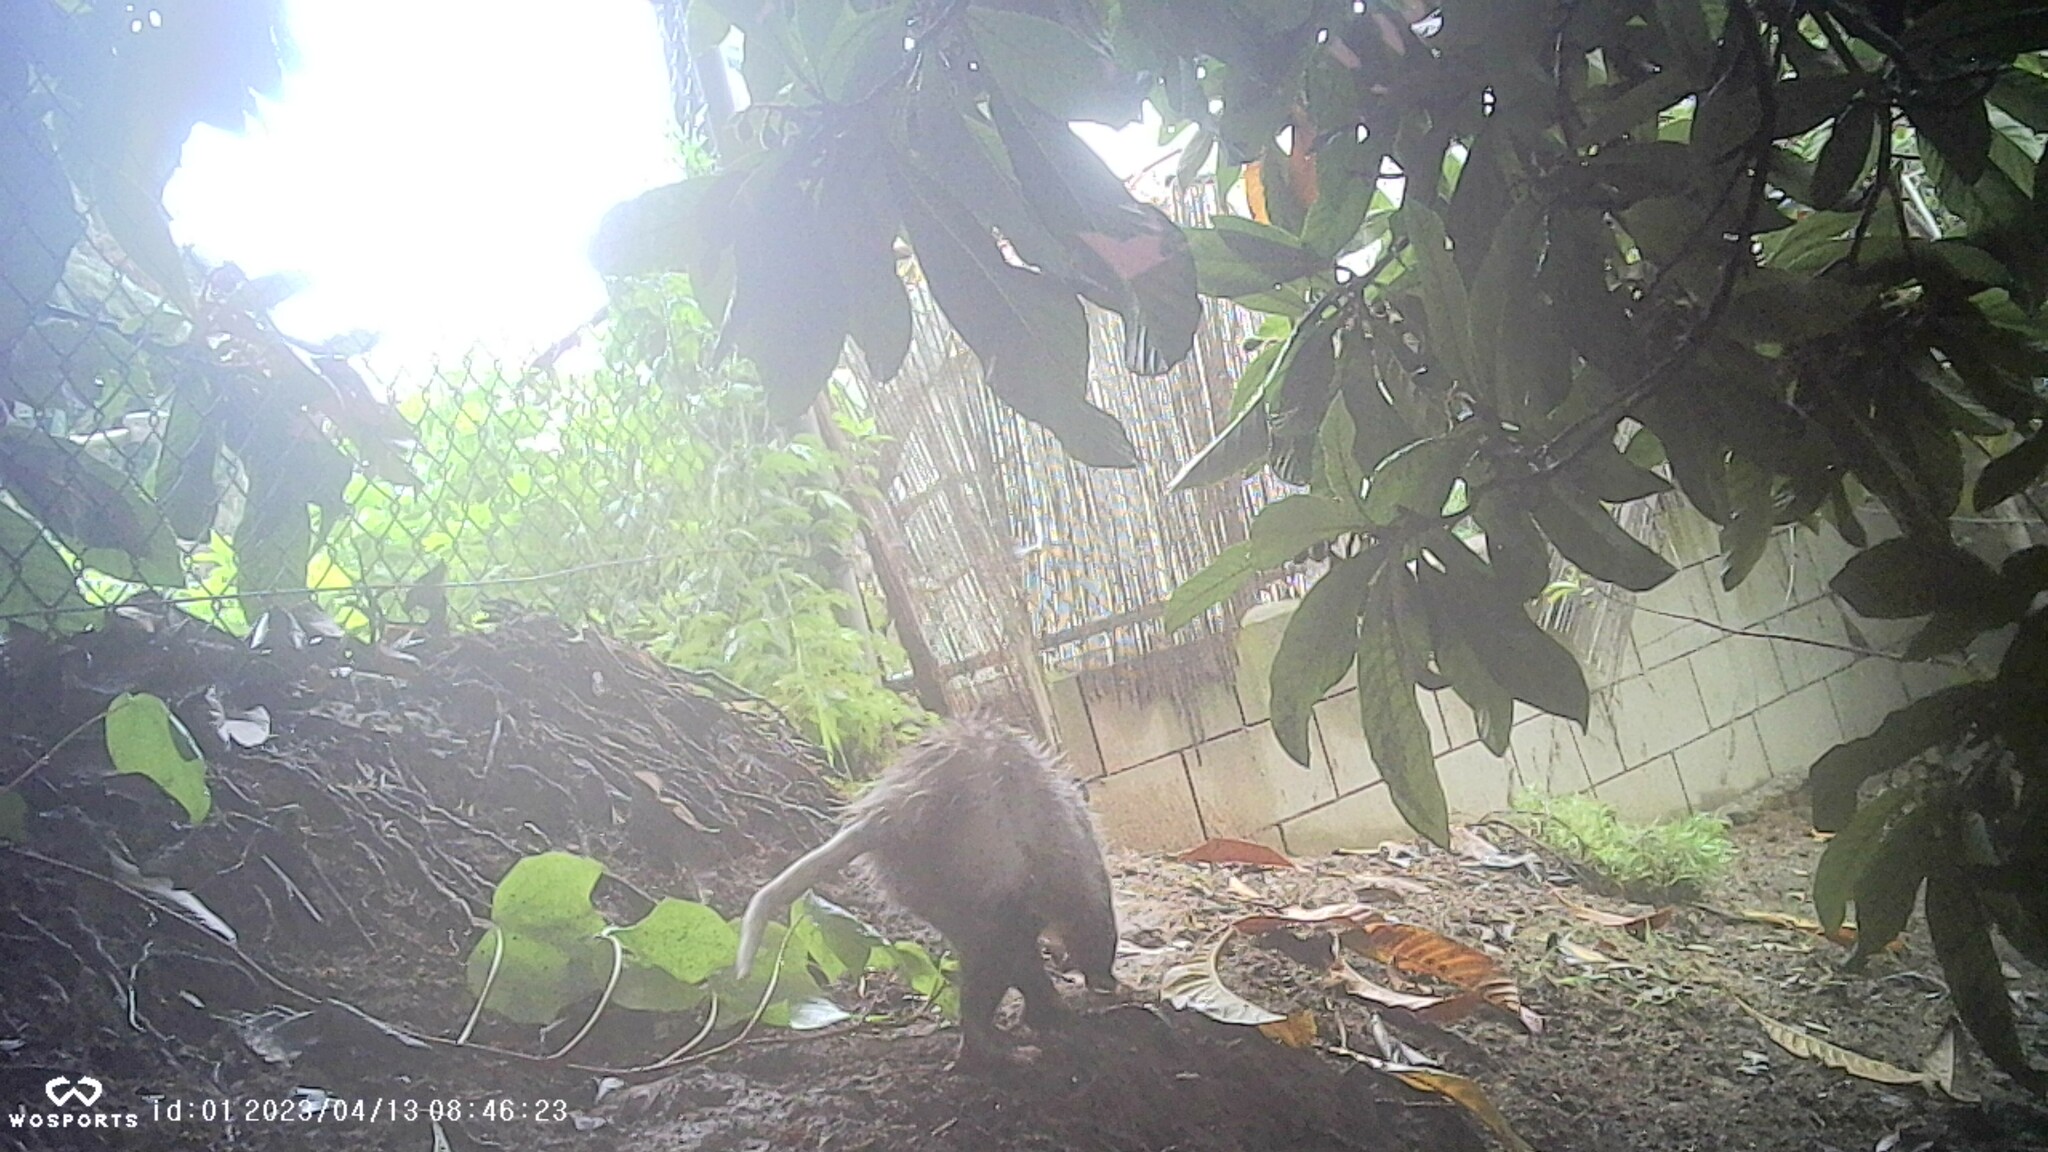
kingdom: Animalia
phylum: Chordata
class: Mammalia
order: Didelphimorphia
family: Didelphidae
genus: Didelphis
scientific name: Didelphis virginiana
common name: Virginia opossum
